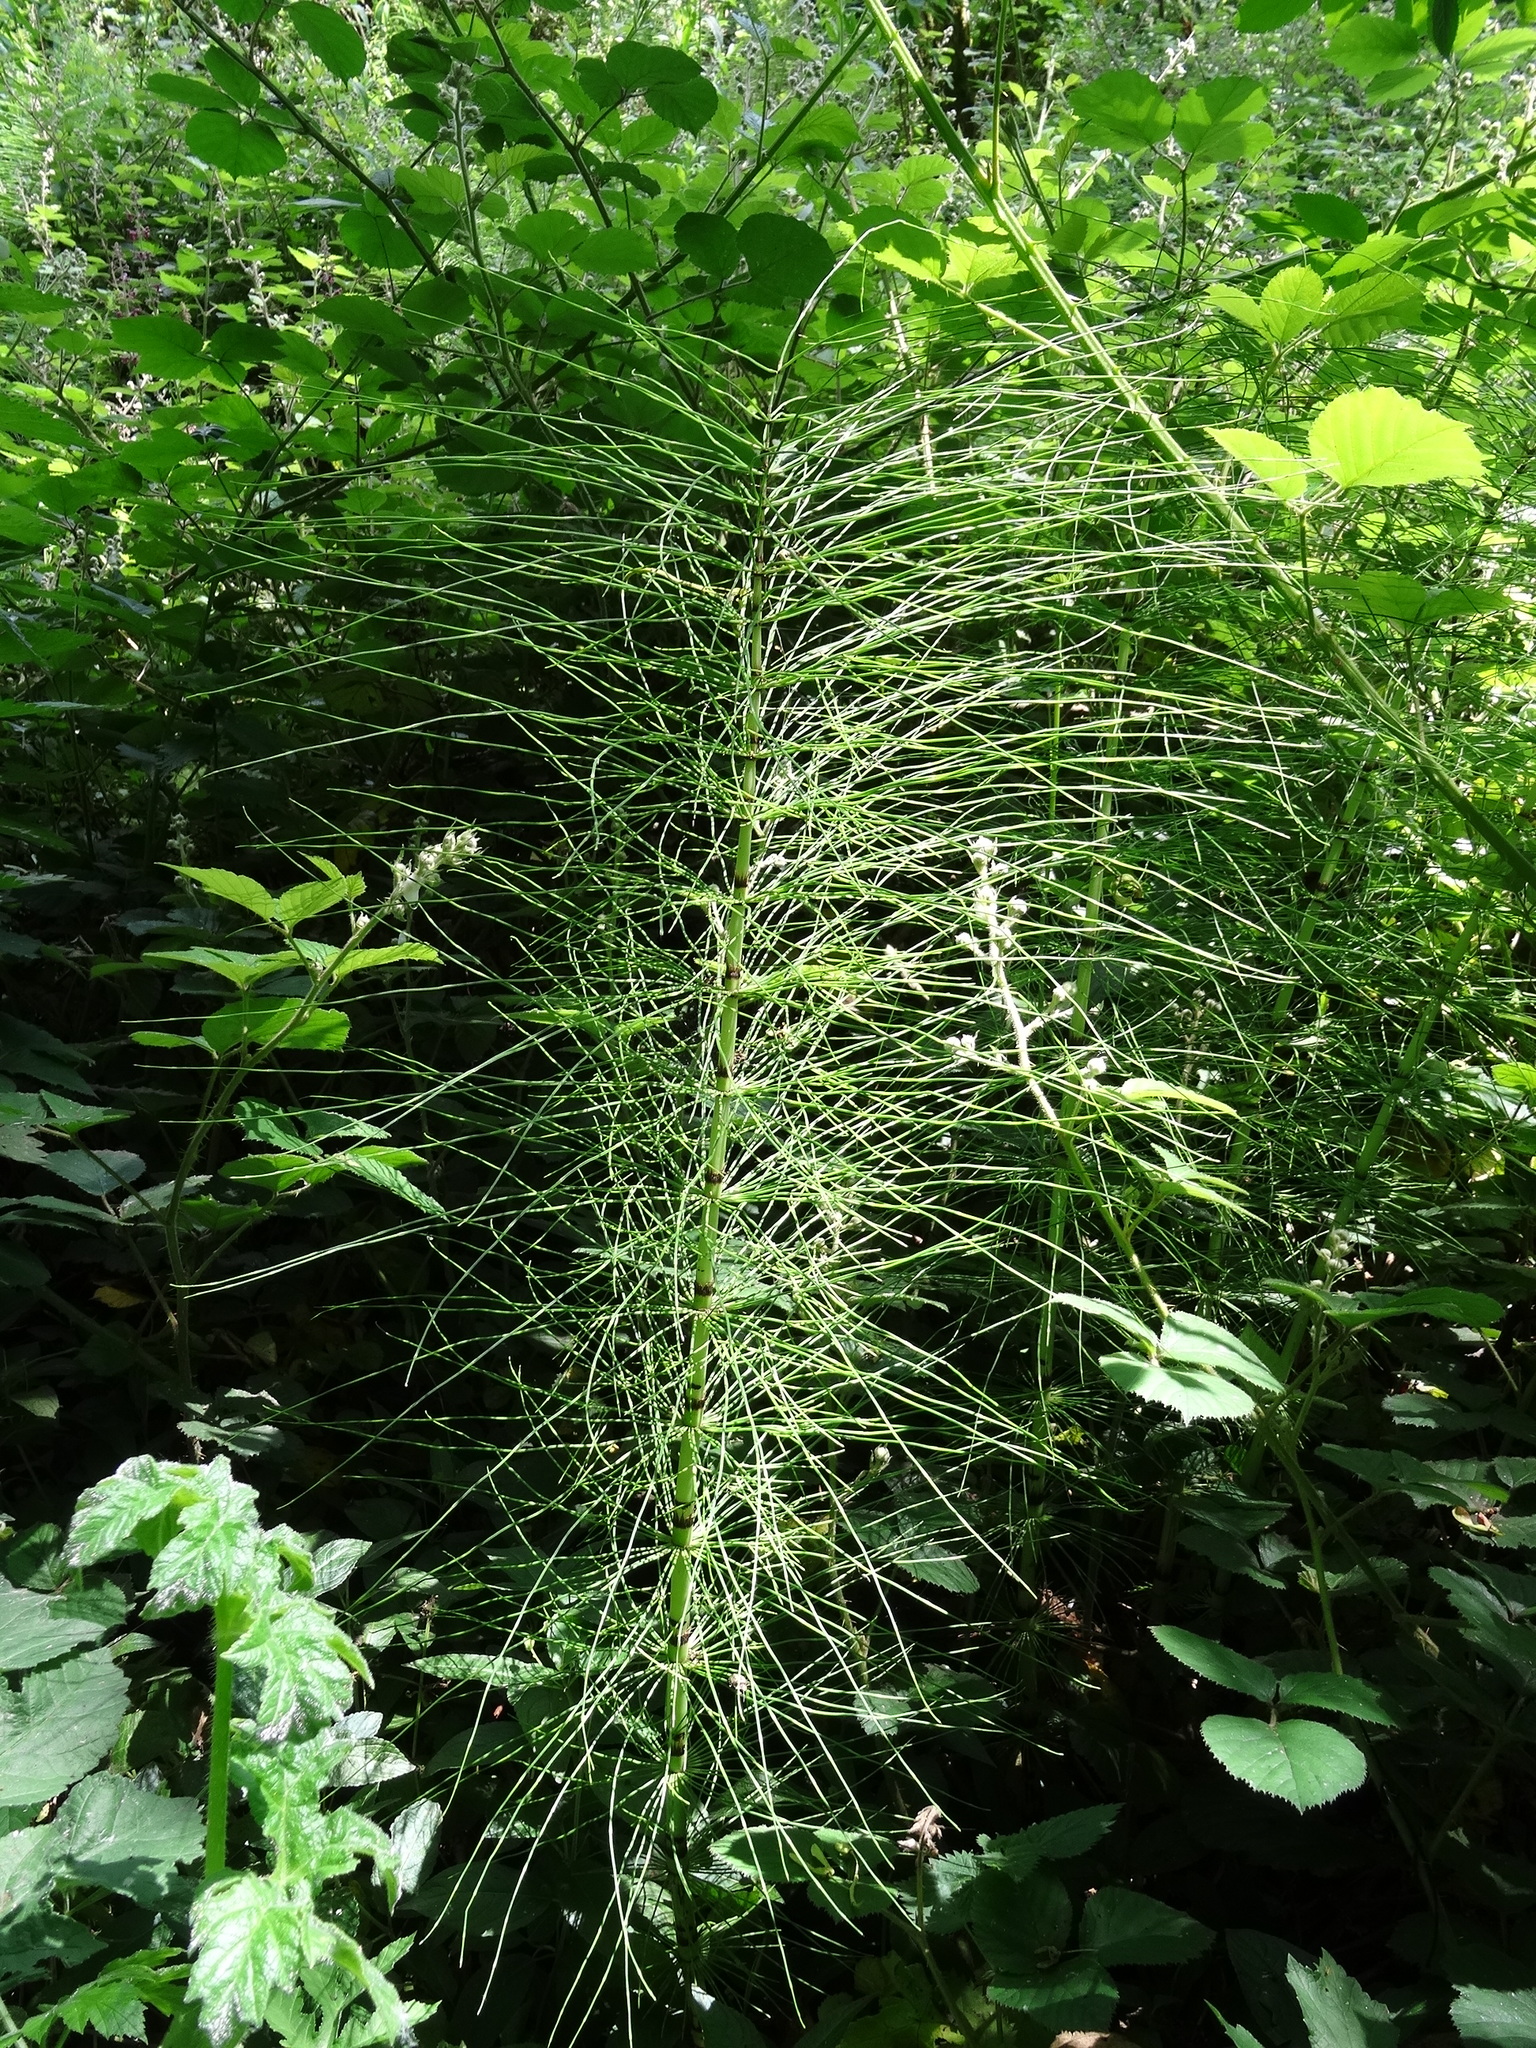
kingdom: Plantae
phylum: Tracheophyta
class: Polypodiopsida
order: Equisetales
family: Equisetaceae
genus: Equisetum
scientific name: Equisetum telmateia
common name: Great horsetail
